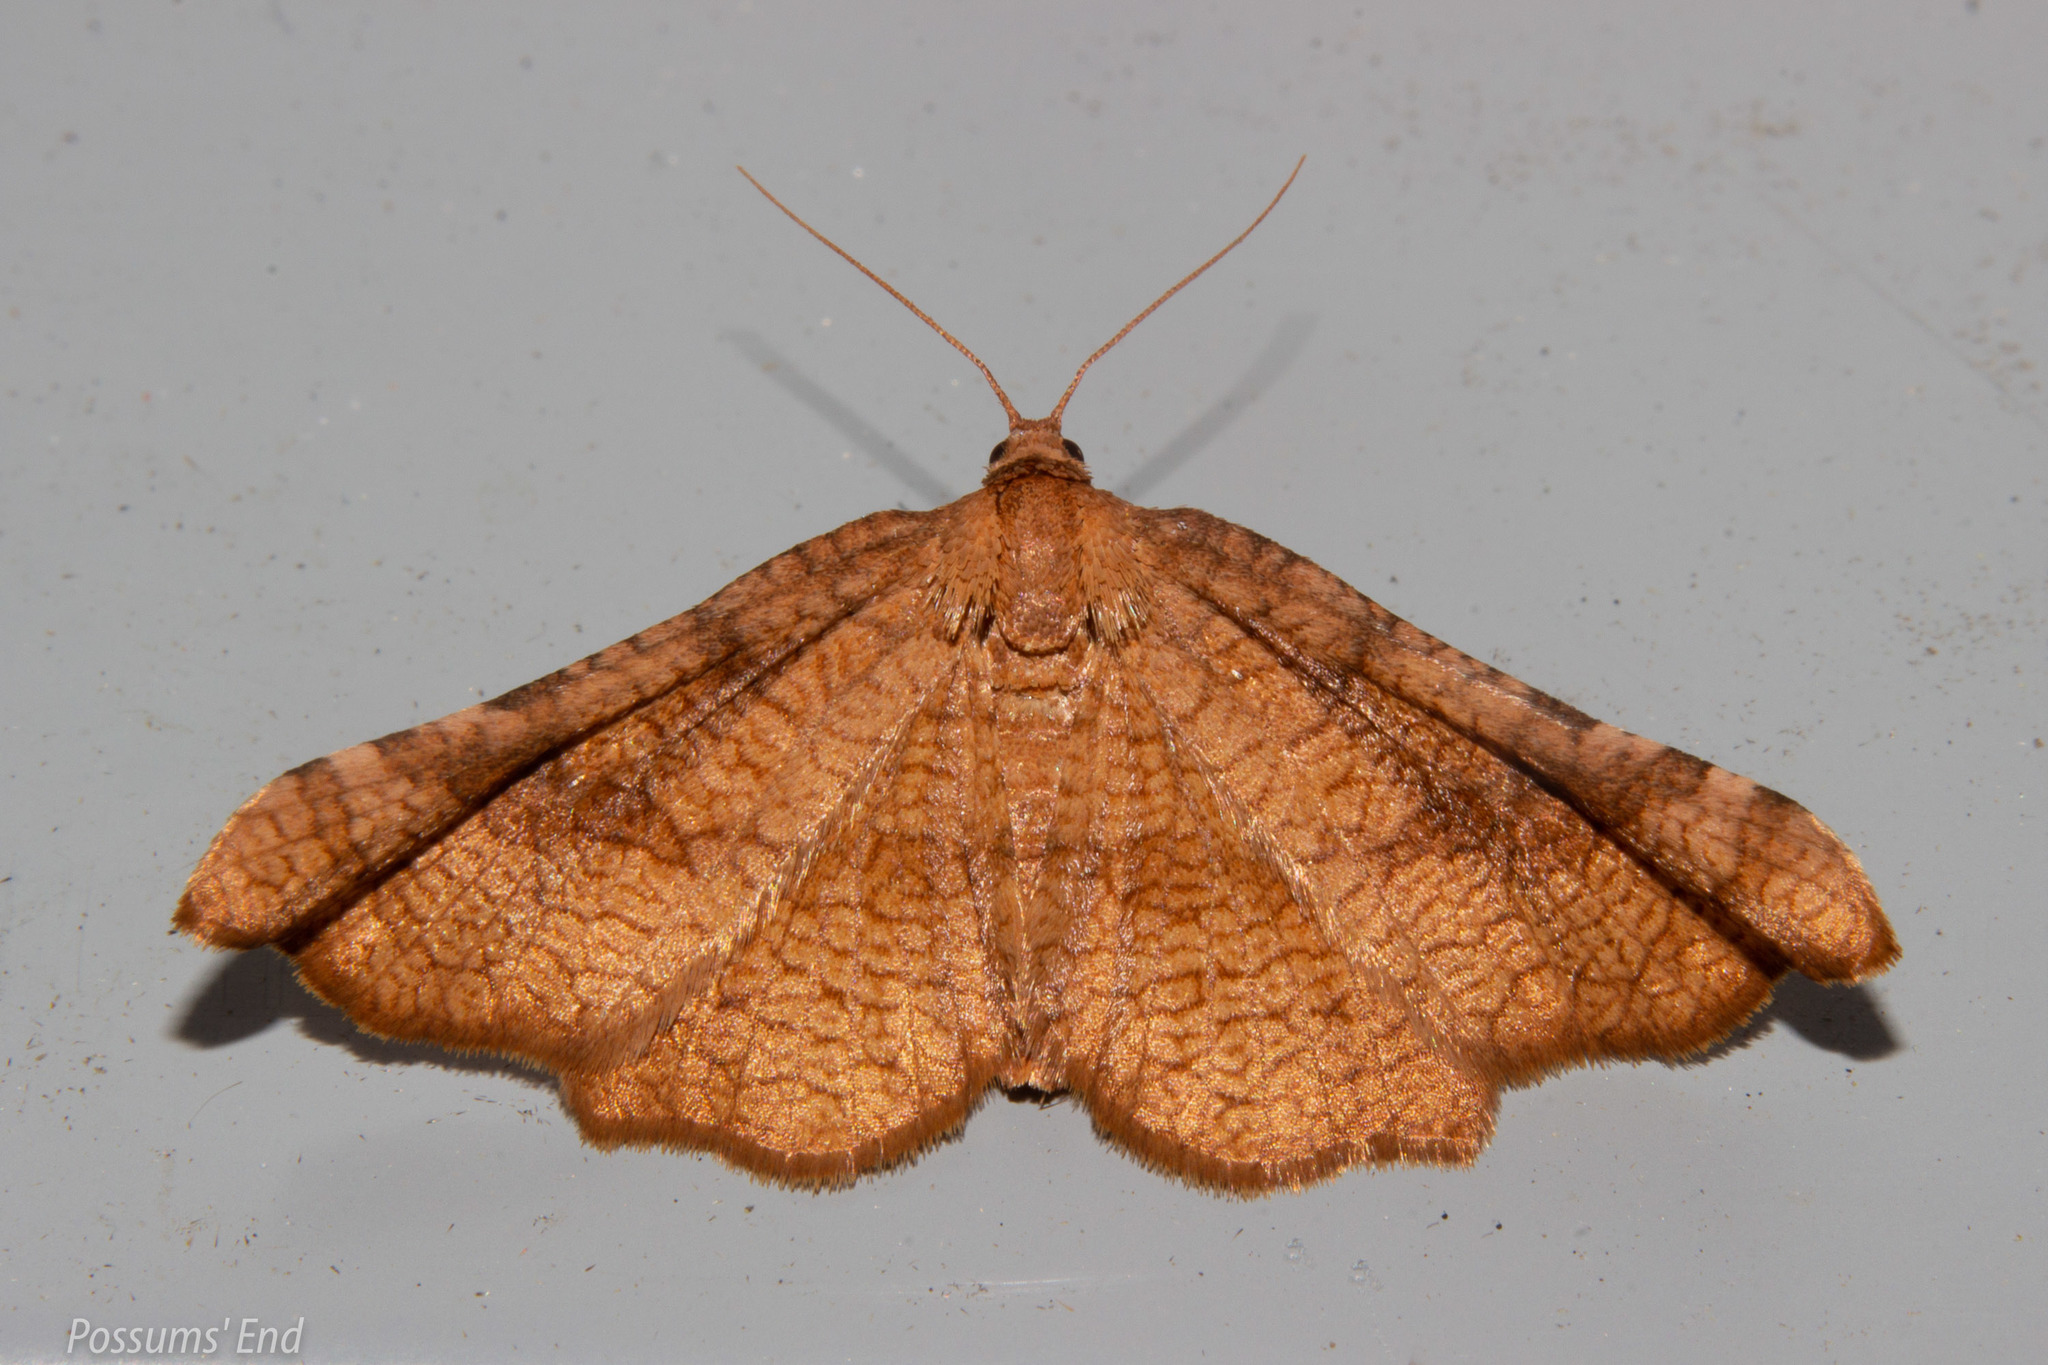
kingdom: Animalia
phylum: Arthropoda
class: Insecta
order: Lepidoptera
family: Thyrididae
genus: Morova
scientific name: Morova subfasciata
